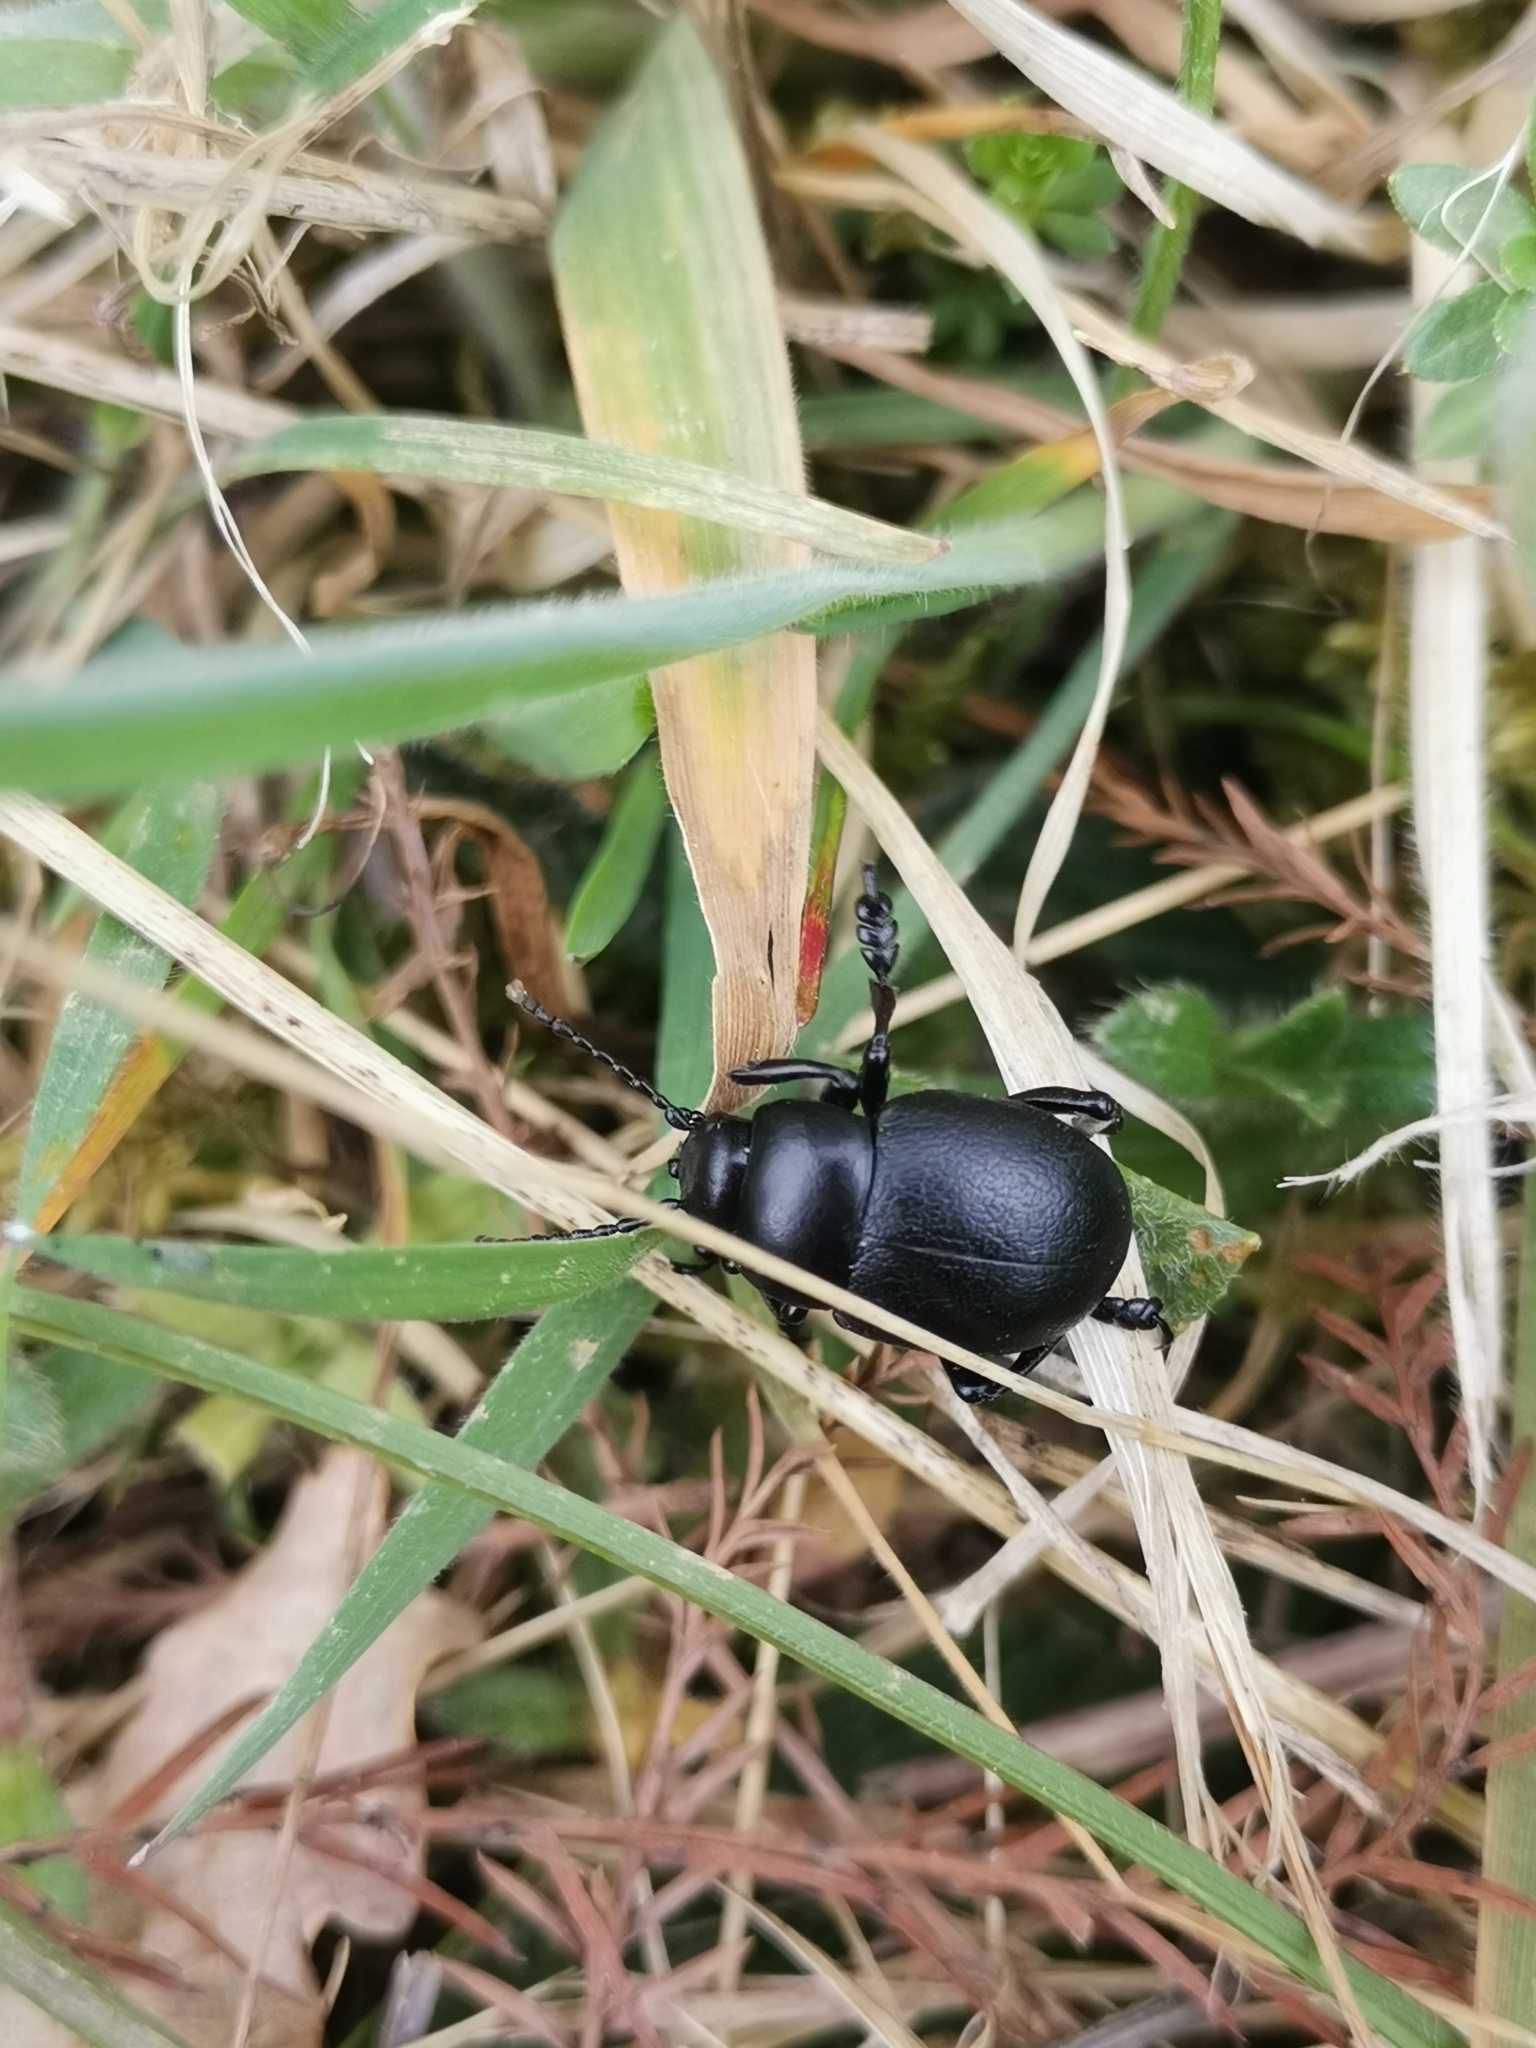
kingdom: Animalia
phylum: Arthropoda
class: Insecta
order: Coleoptera
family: Chrysomelidae
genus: Timarcha
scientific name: Timarcha tenebricosa
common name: Bloody-nosed beetle
